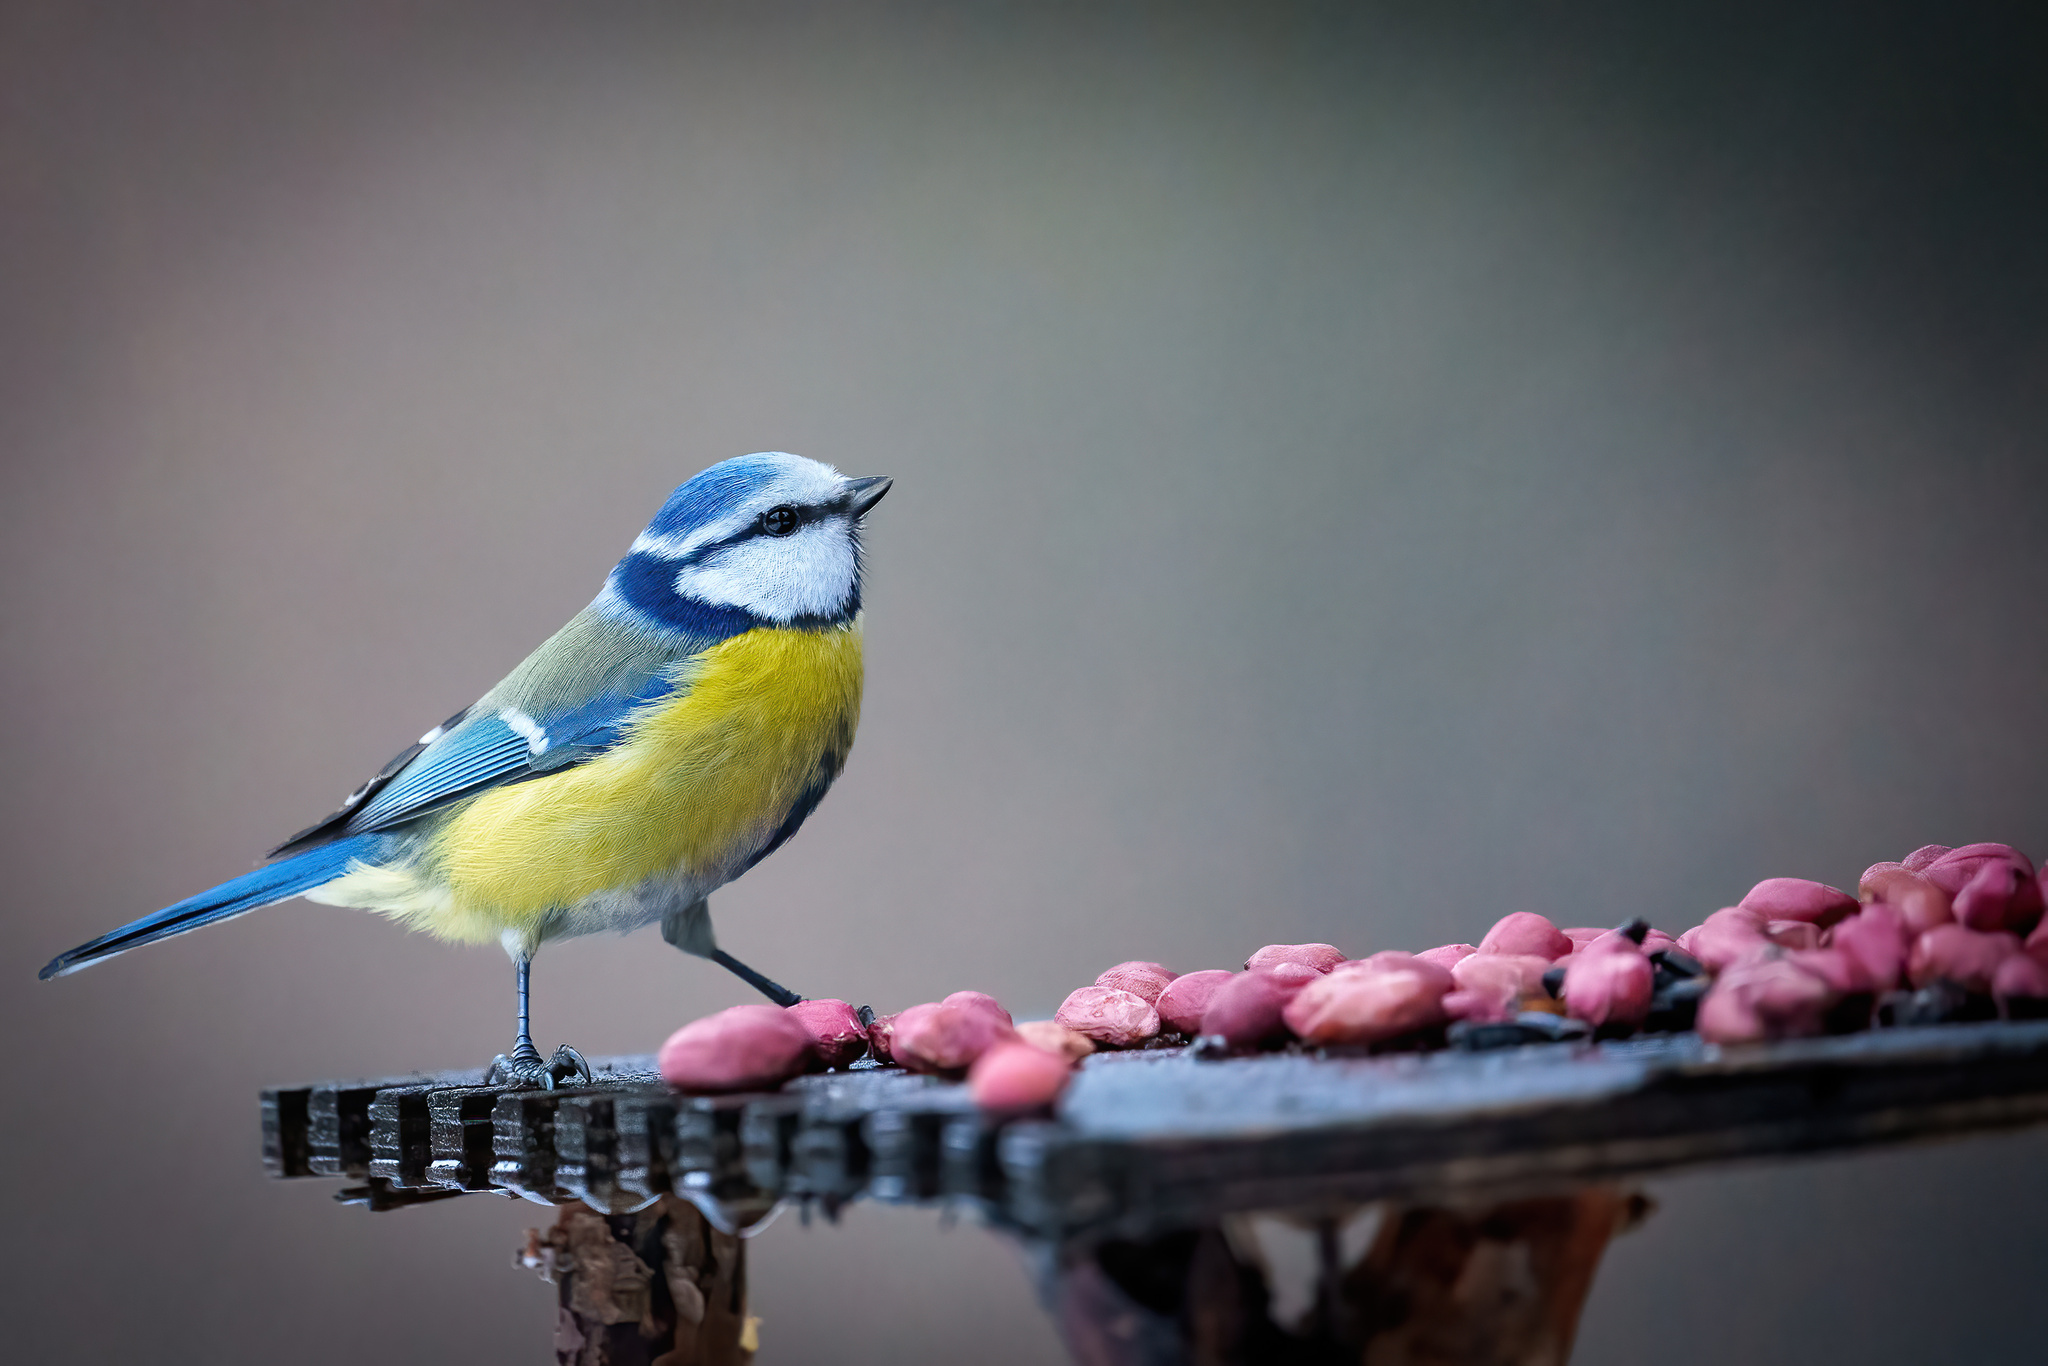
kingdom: Animalia
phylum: Chordata
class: Aves
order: Passeriformes
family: Paridae
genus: Cyanistes
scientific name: Cyanistes caeruleus
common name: Eurasian blue tit
